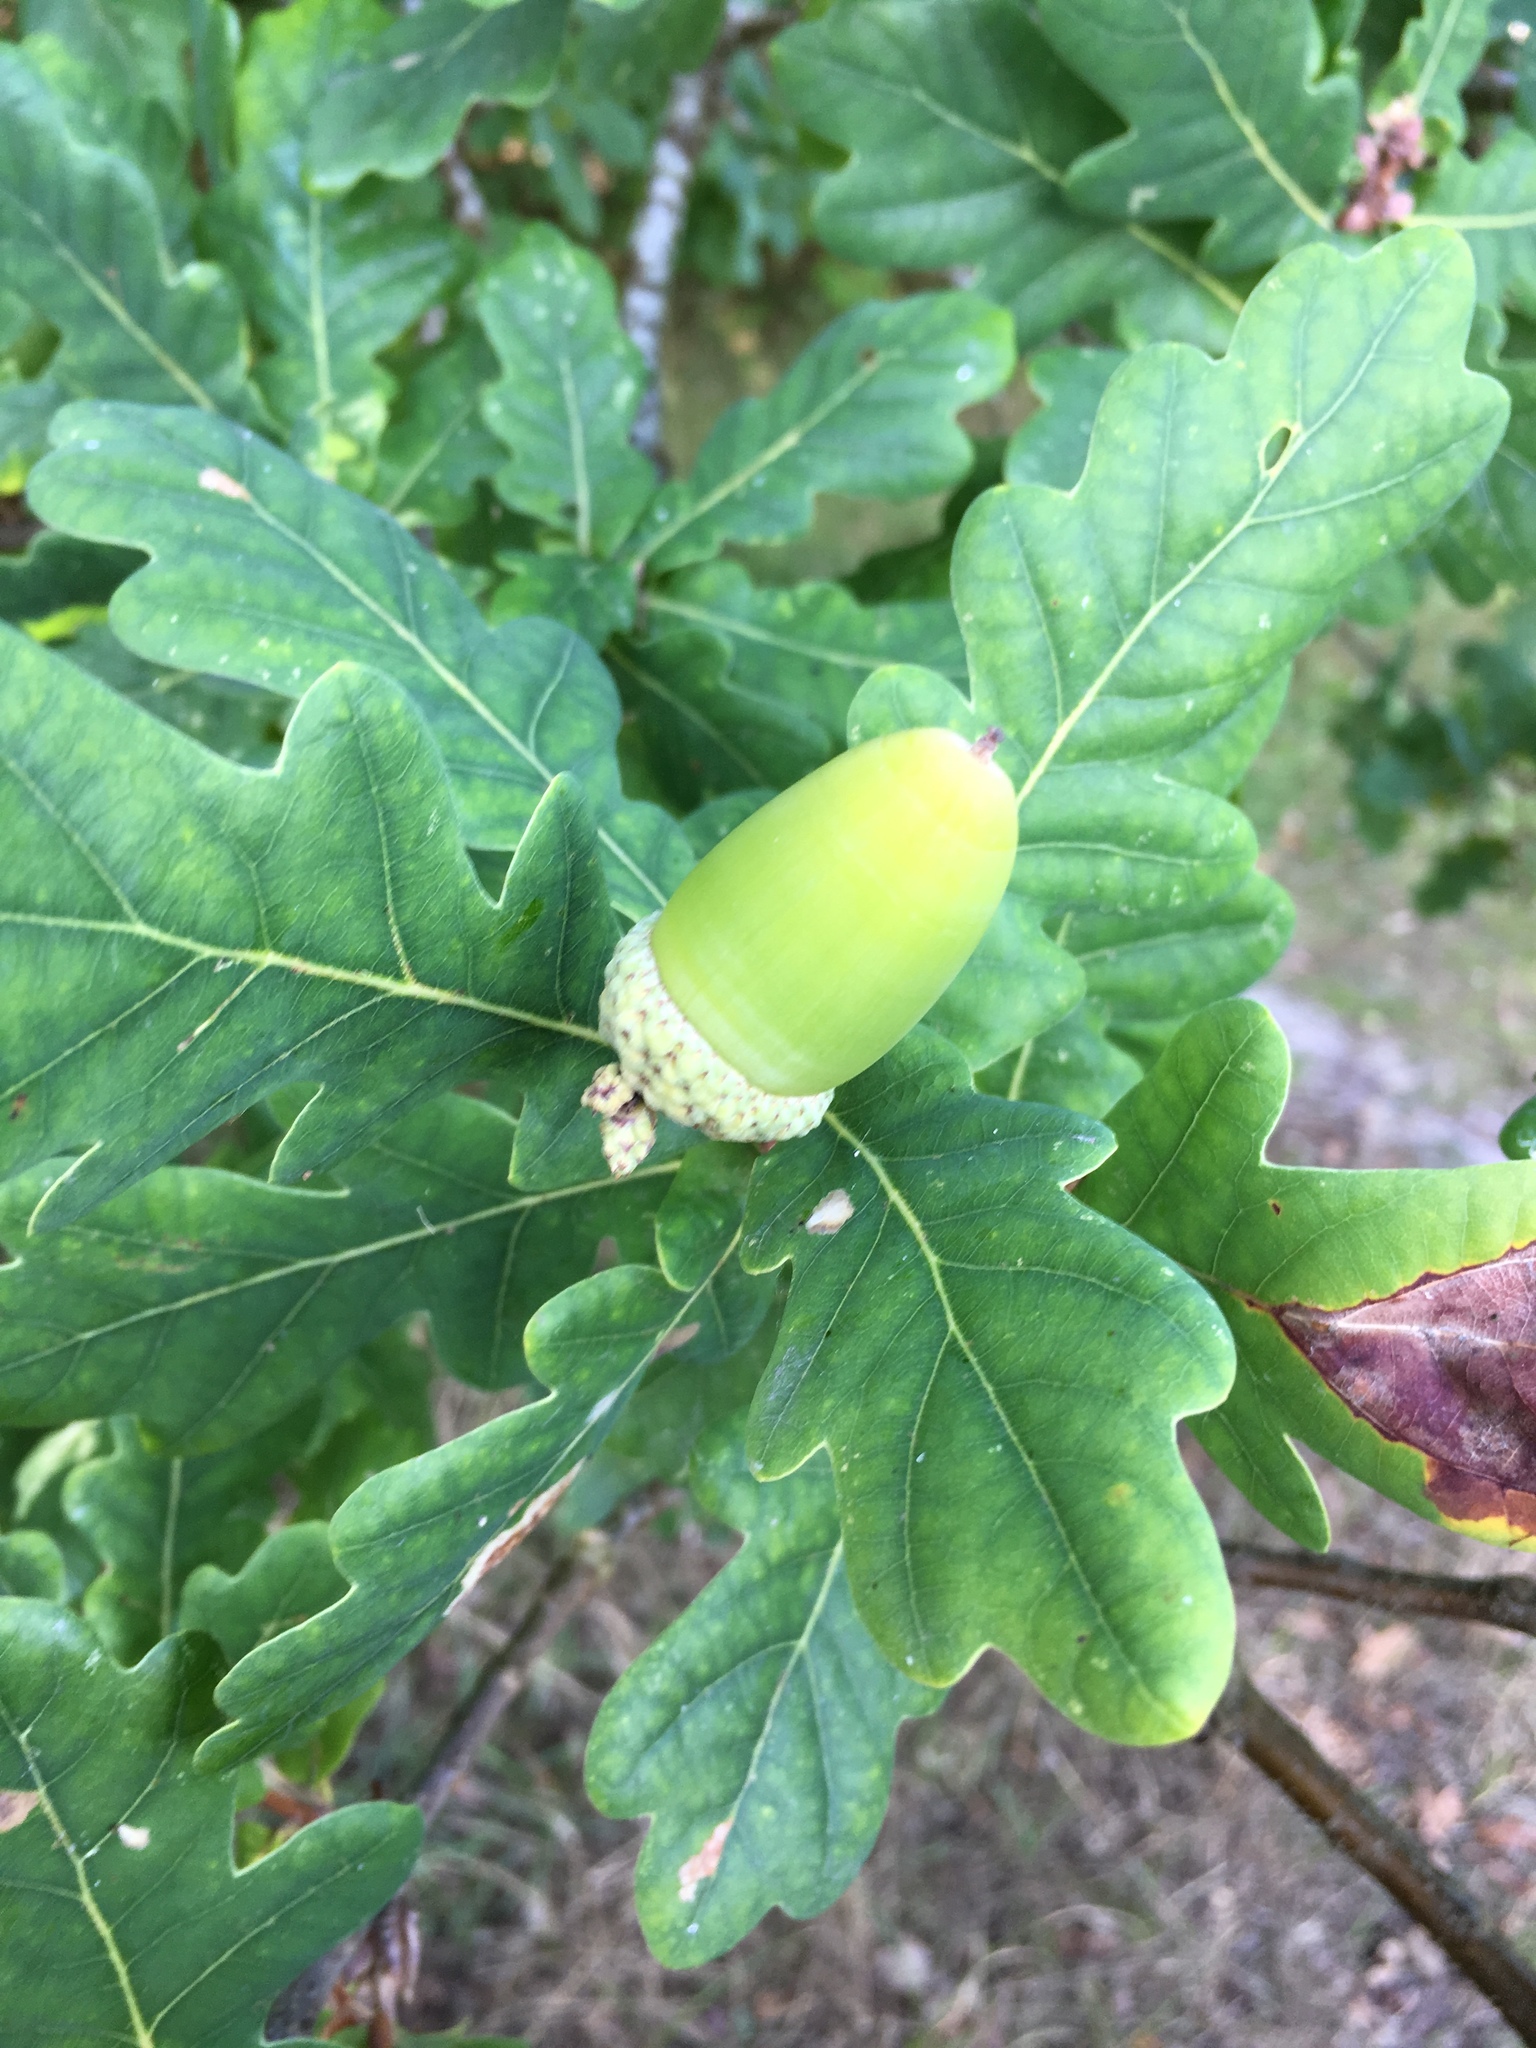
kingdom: Plantae
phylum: Tracheophyta
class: Magnoliopsida
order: Fagales
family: Fagaceae
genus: Quercus
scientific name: Quercus robur
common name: Pedunculate oak
